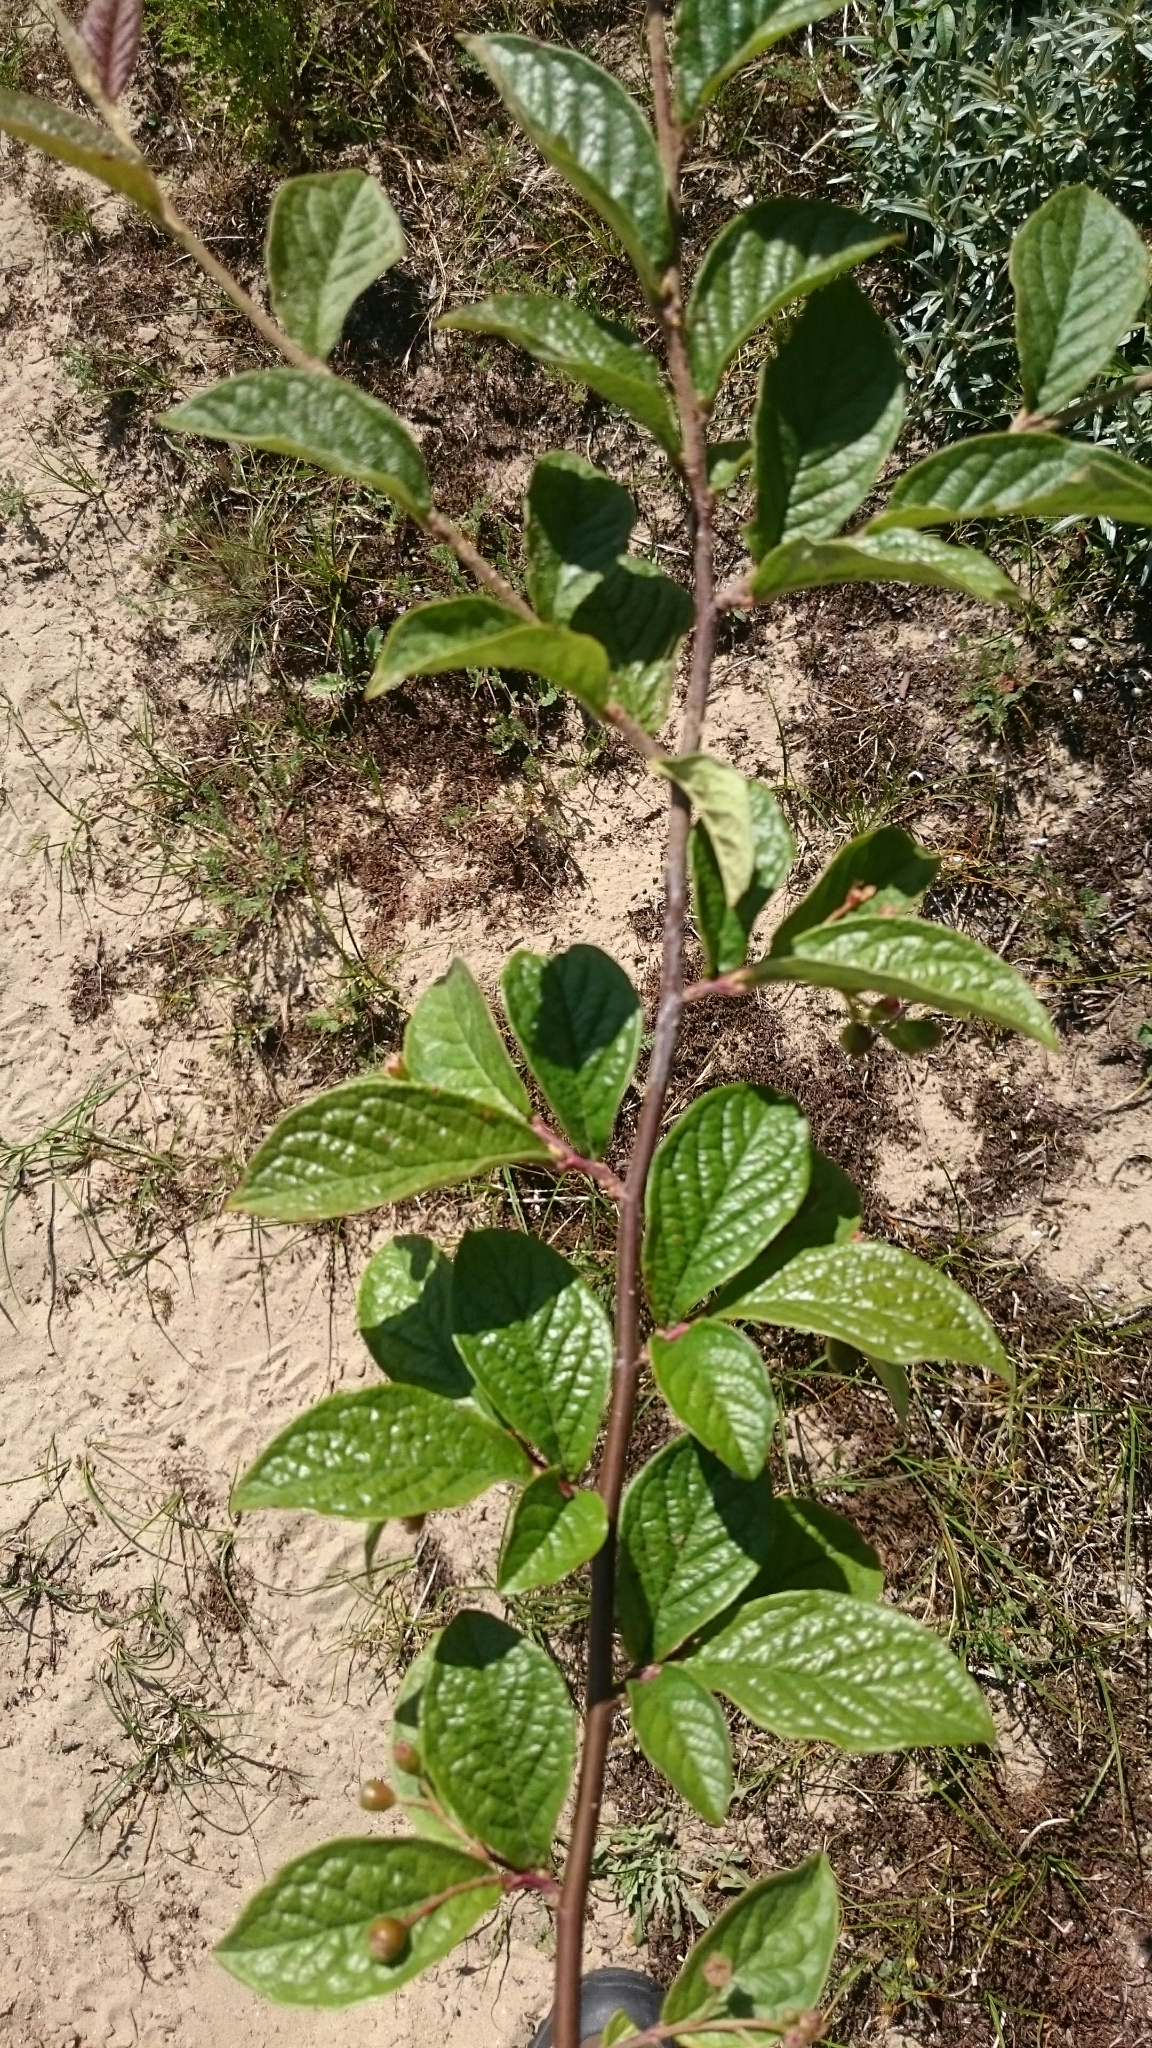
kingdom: Plantae
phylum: Tracheophyta
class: Magnoliopsida
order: Rosales
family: Rosaceae
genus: Cotoneaster
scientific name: Cotoneaster bullatus
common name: Hollyberry cotoneaster
